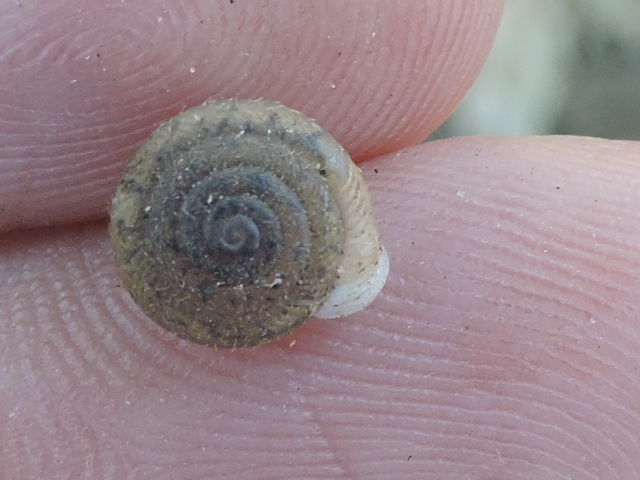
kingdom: Animalia
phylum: Mollusca
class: Gastropoda
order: Stylommatophora
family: Polygyridae
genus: Linisa
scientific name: Linisa texasiana
